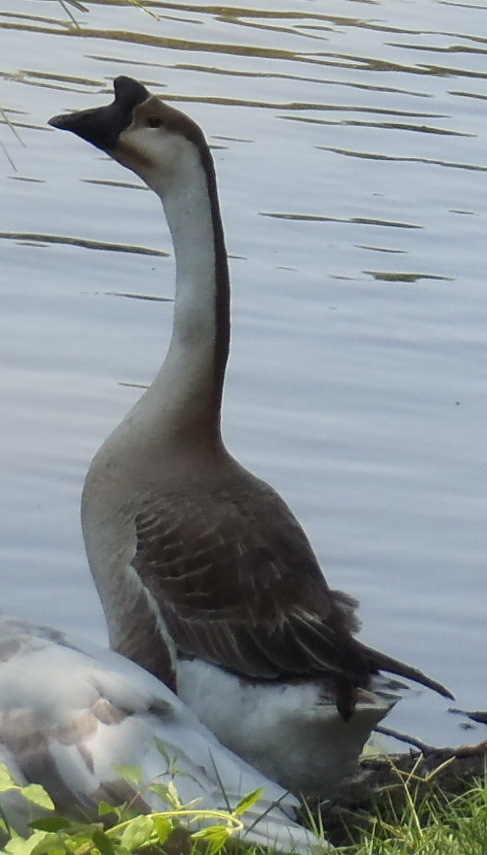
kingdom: Animalia
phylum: Chordata
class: Aves
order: Anseriformes
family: Anatidae
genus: Anser
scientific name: Anser cygnoides
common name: Swan goose
